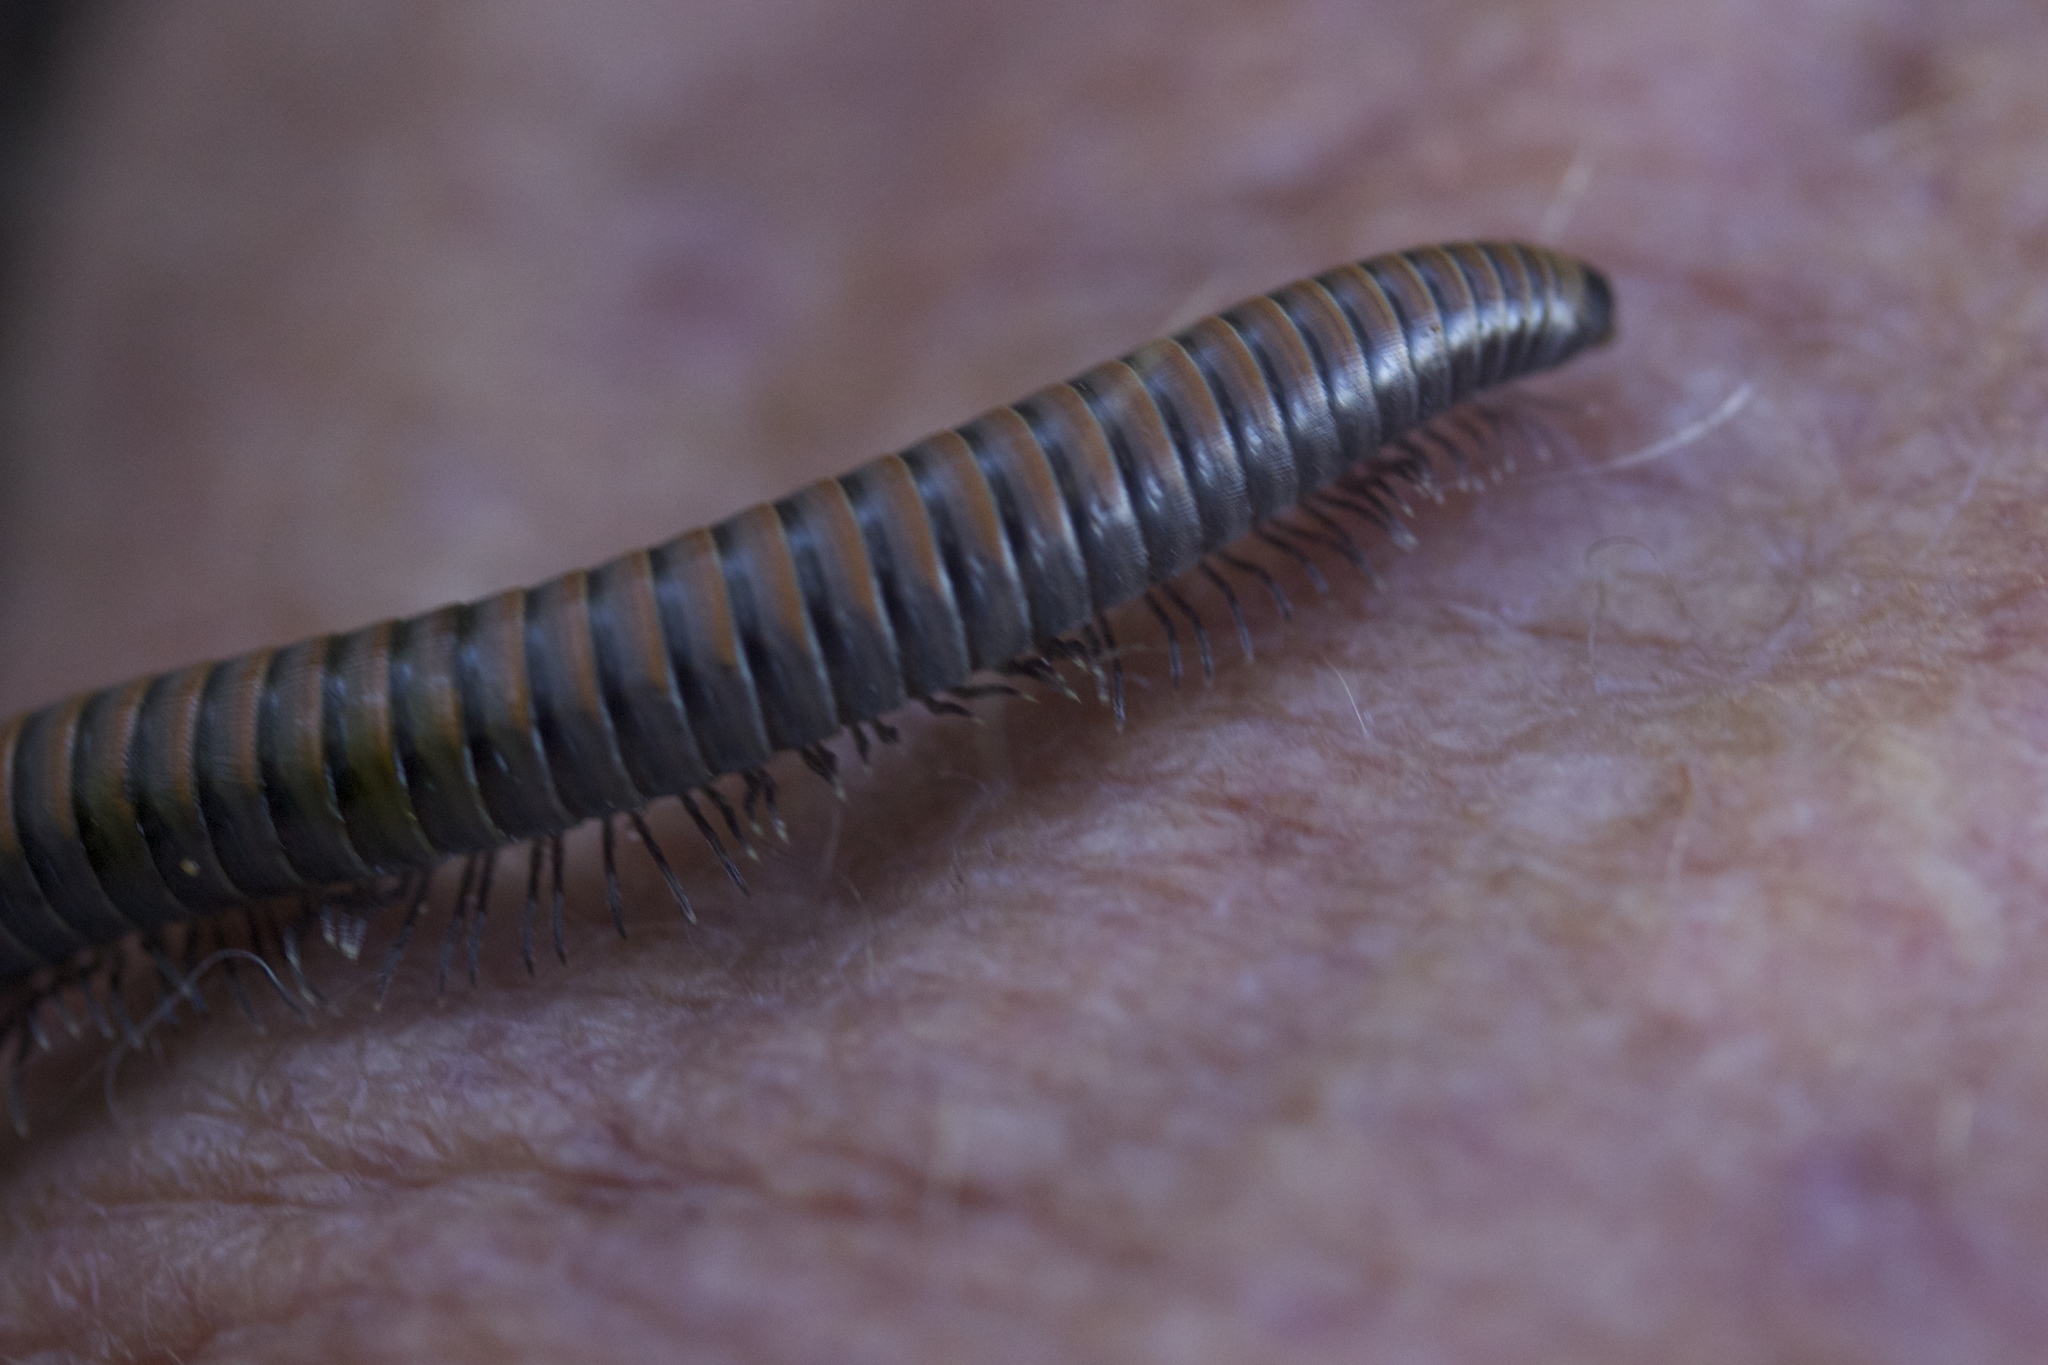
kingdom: Animalia
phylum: Arthropoda
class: Diplopoda
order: Julida
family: Paeromopodidae
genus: Paeromopus
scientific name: Paeromopus angusticeps
